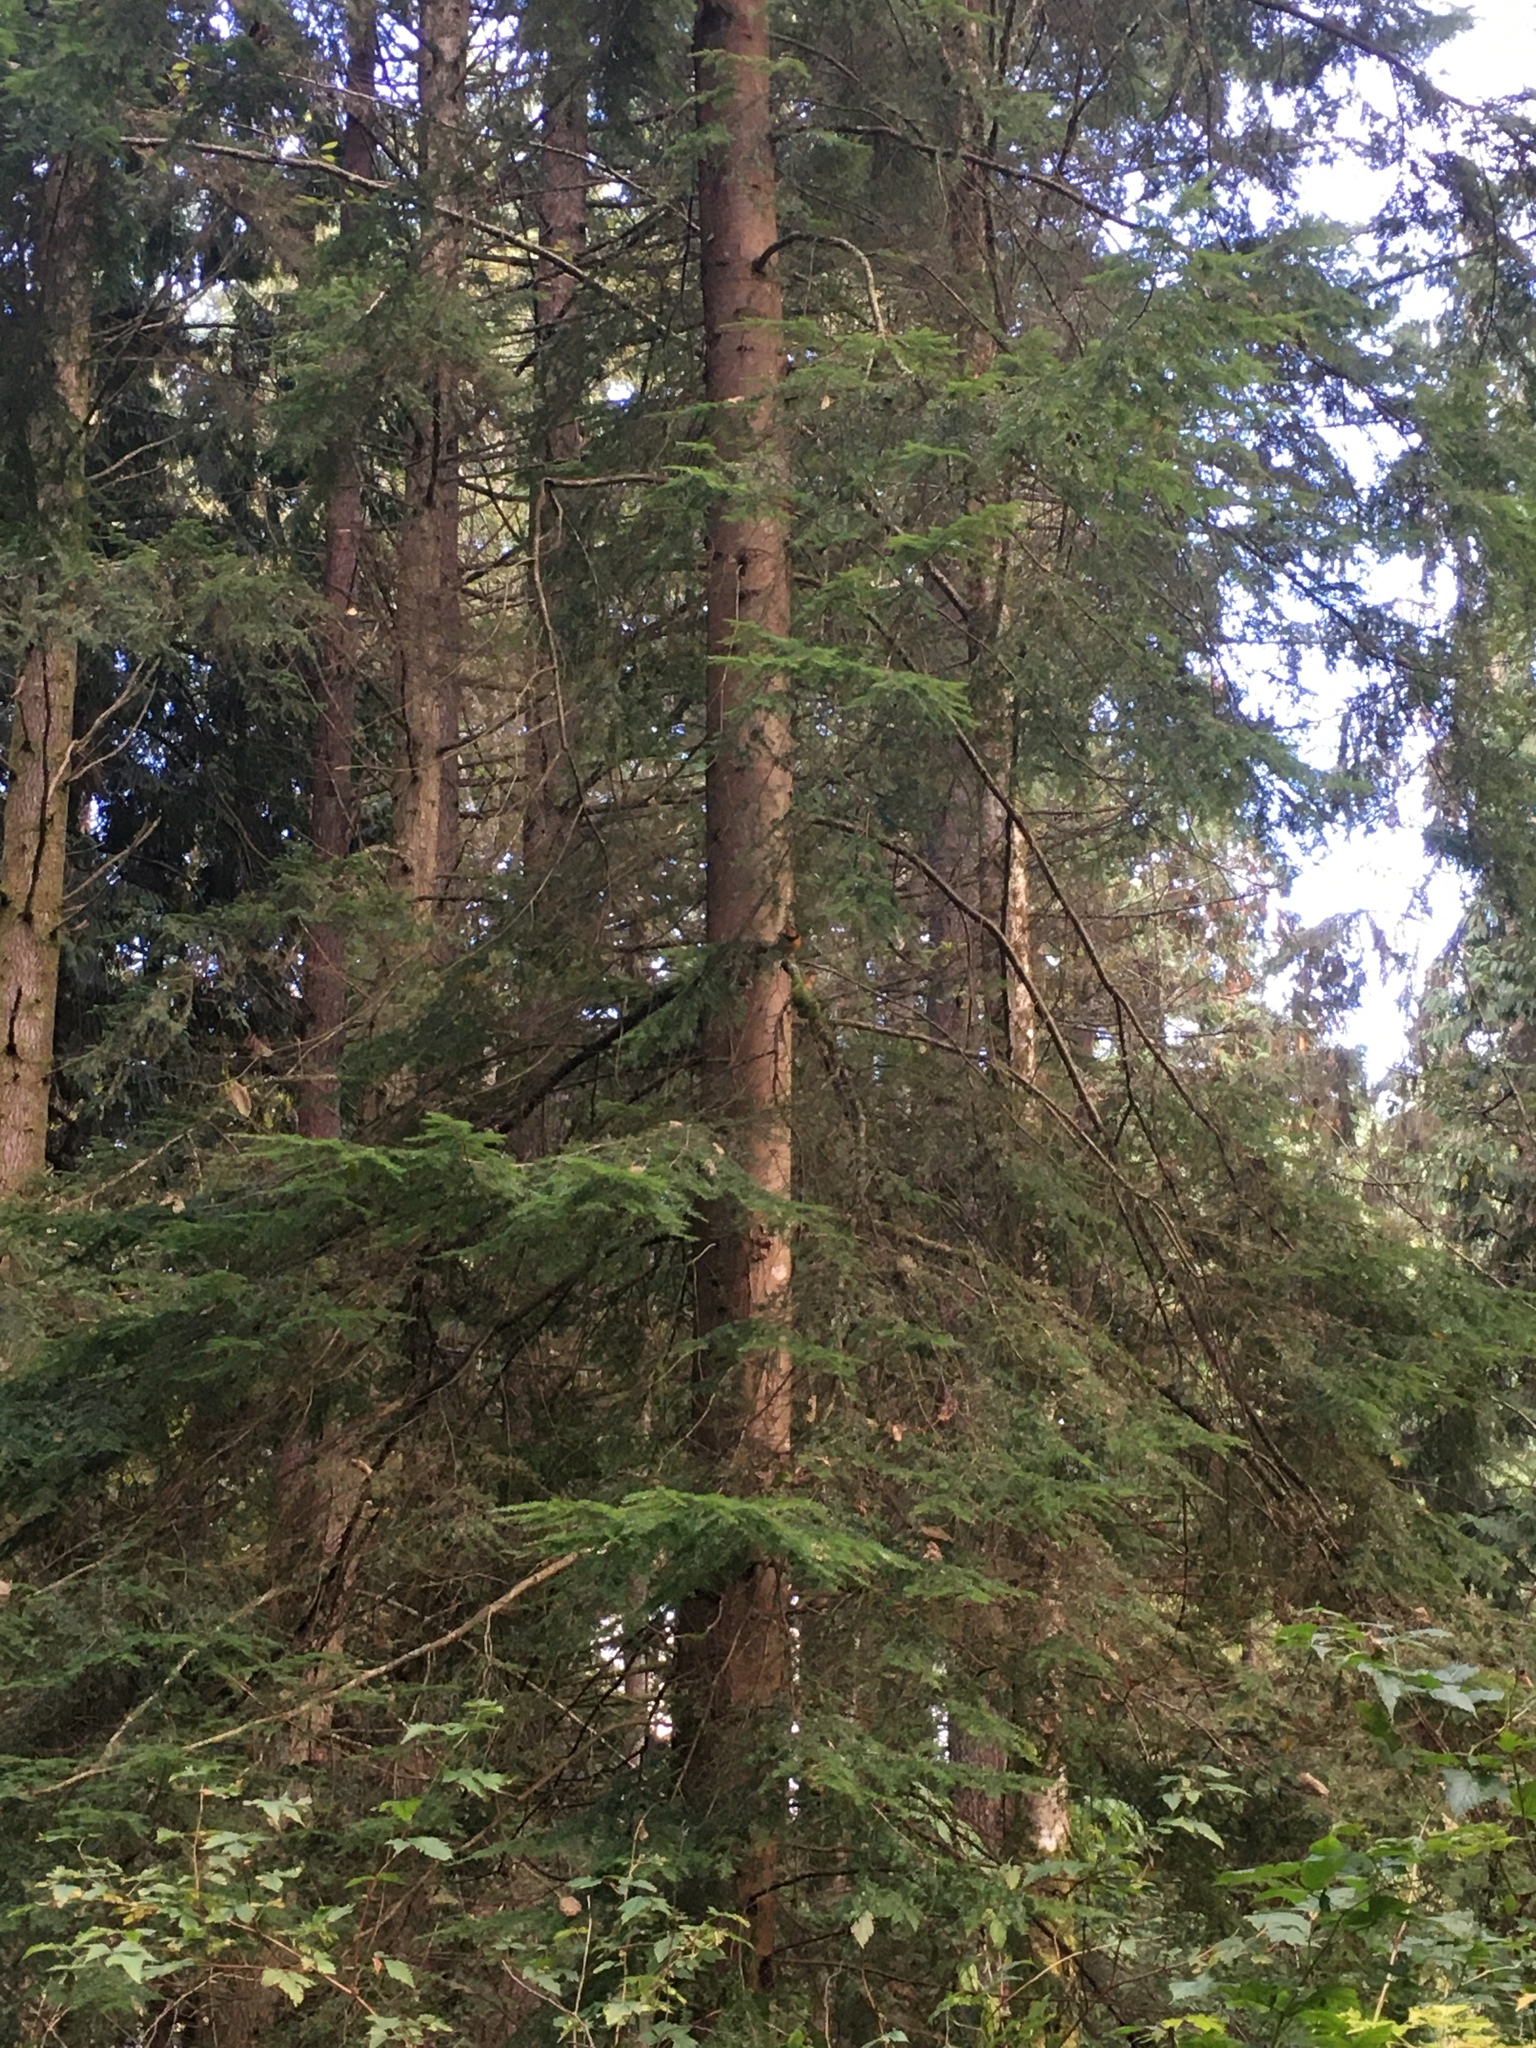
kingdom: Animalia
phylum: Chordata
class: Aves
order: Passeriformes
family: Turdidae
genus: Ixoreus
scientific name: Ixoreus naevius
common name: Varied thrush
